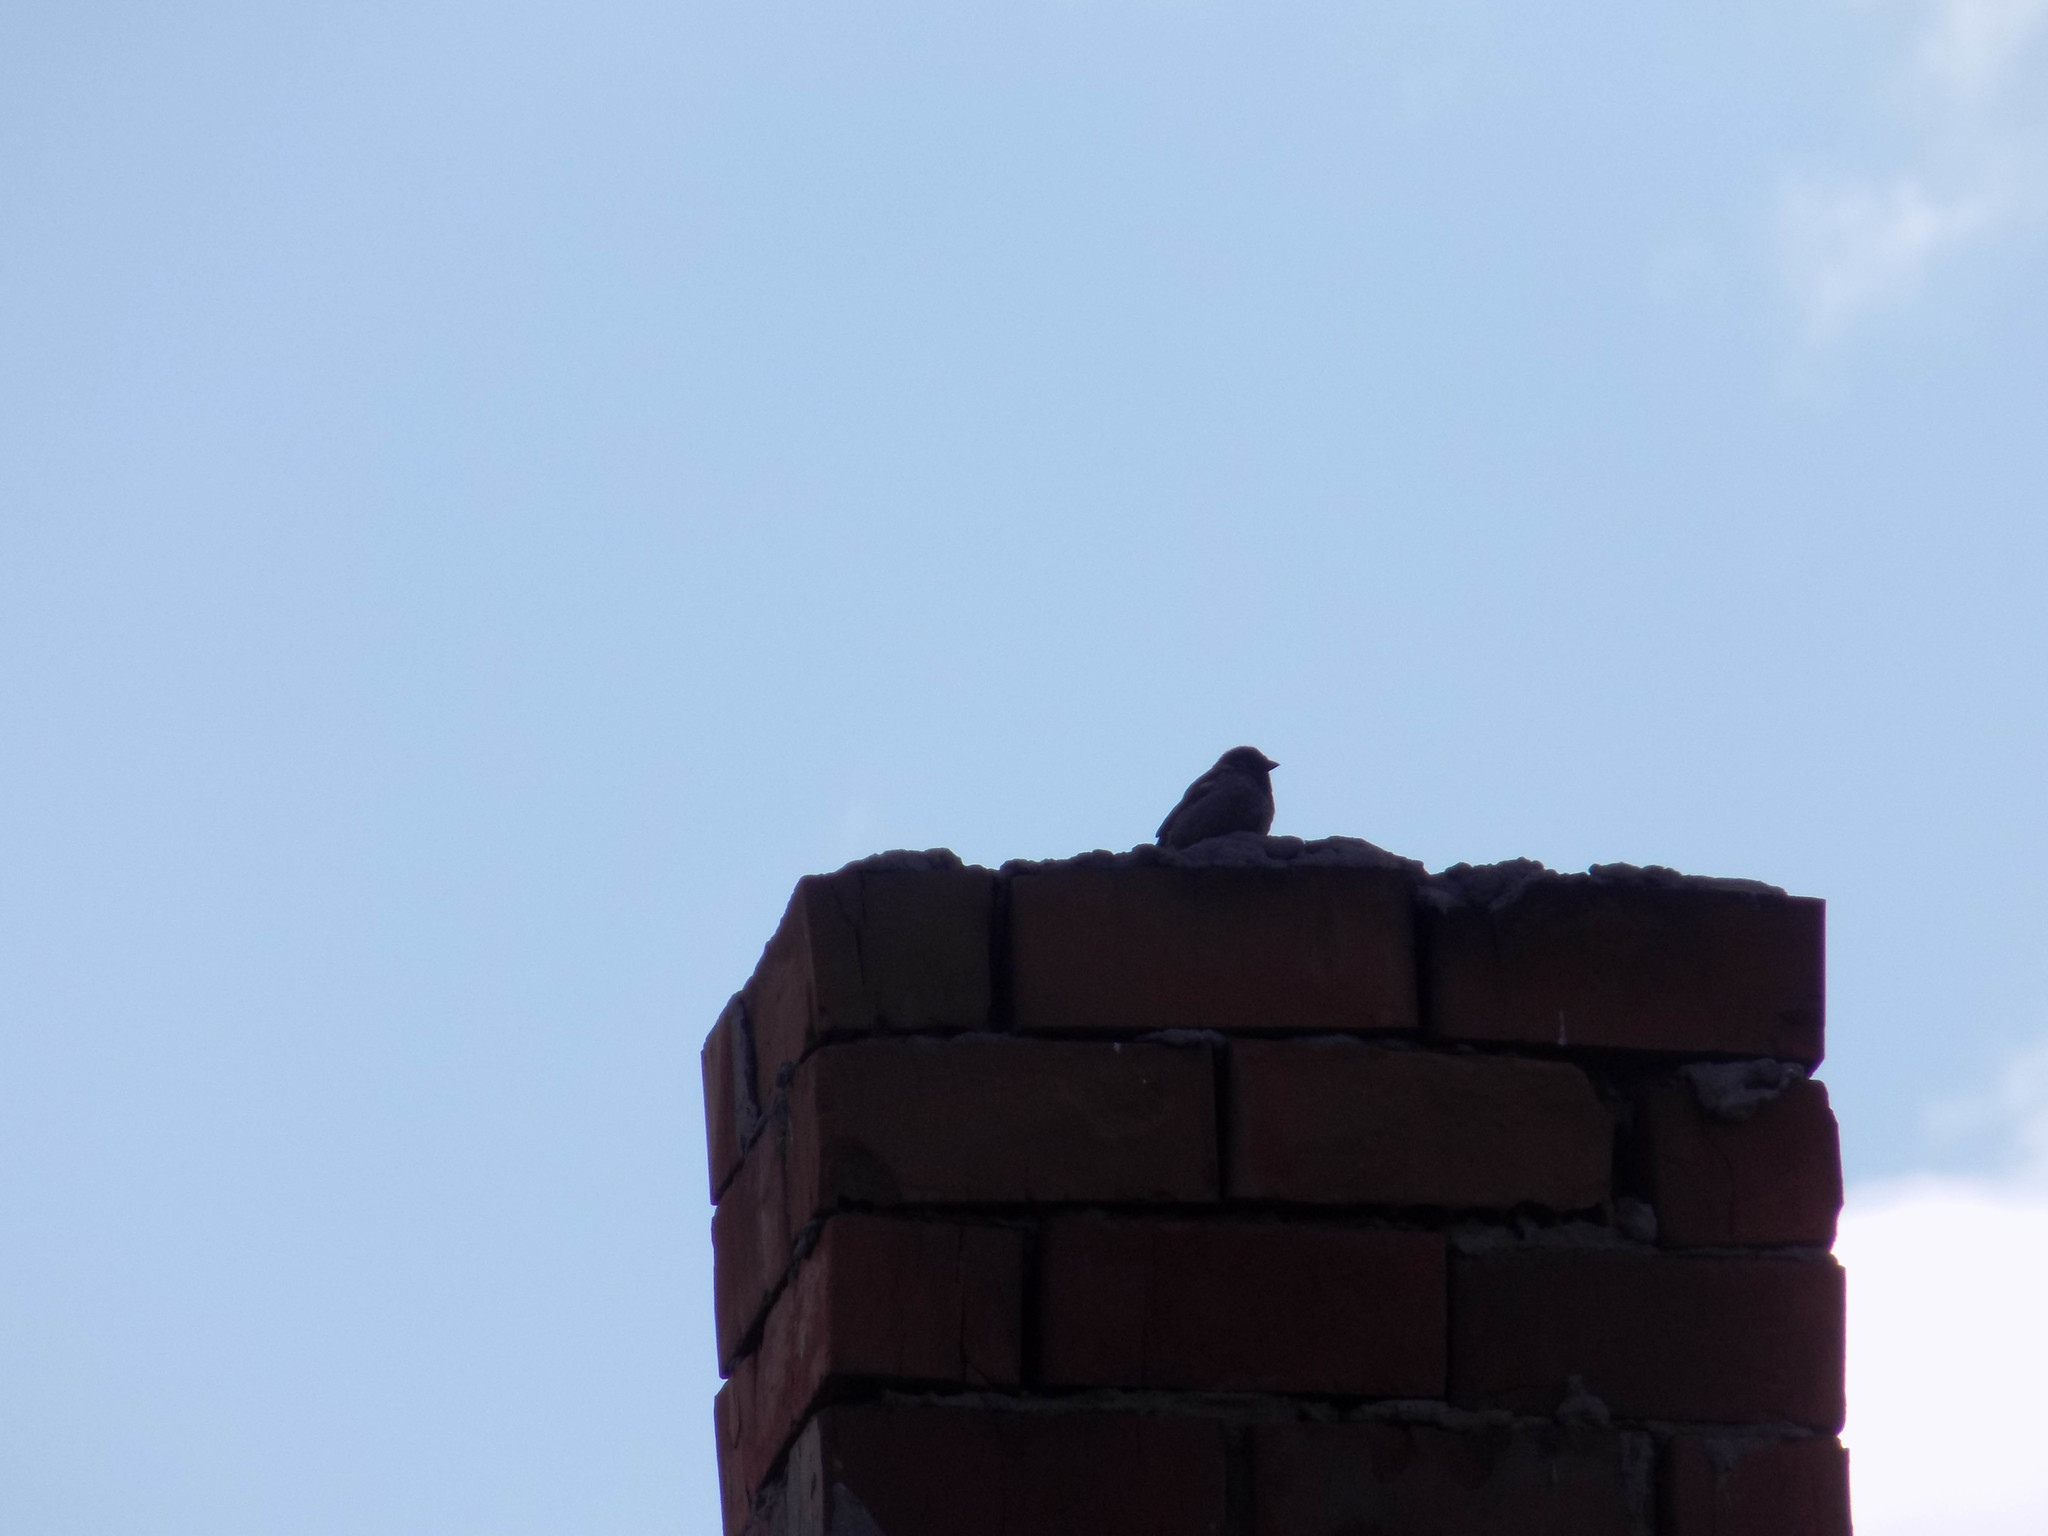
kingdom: Animalia
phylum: Chordata
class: Aves
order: Passeriformes
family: Passeridae
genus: Passer
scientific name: Passer domesticus
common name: House sparrow
